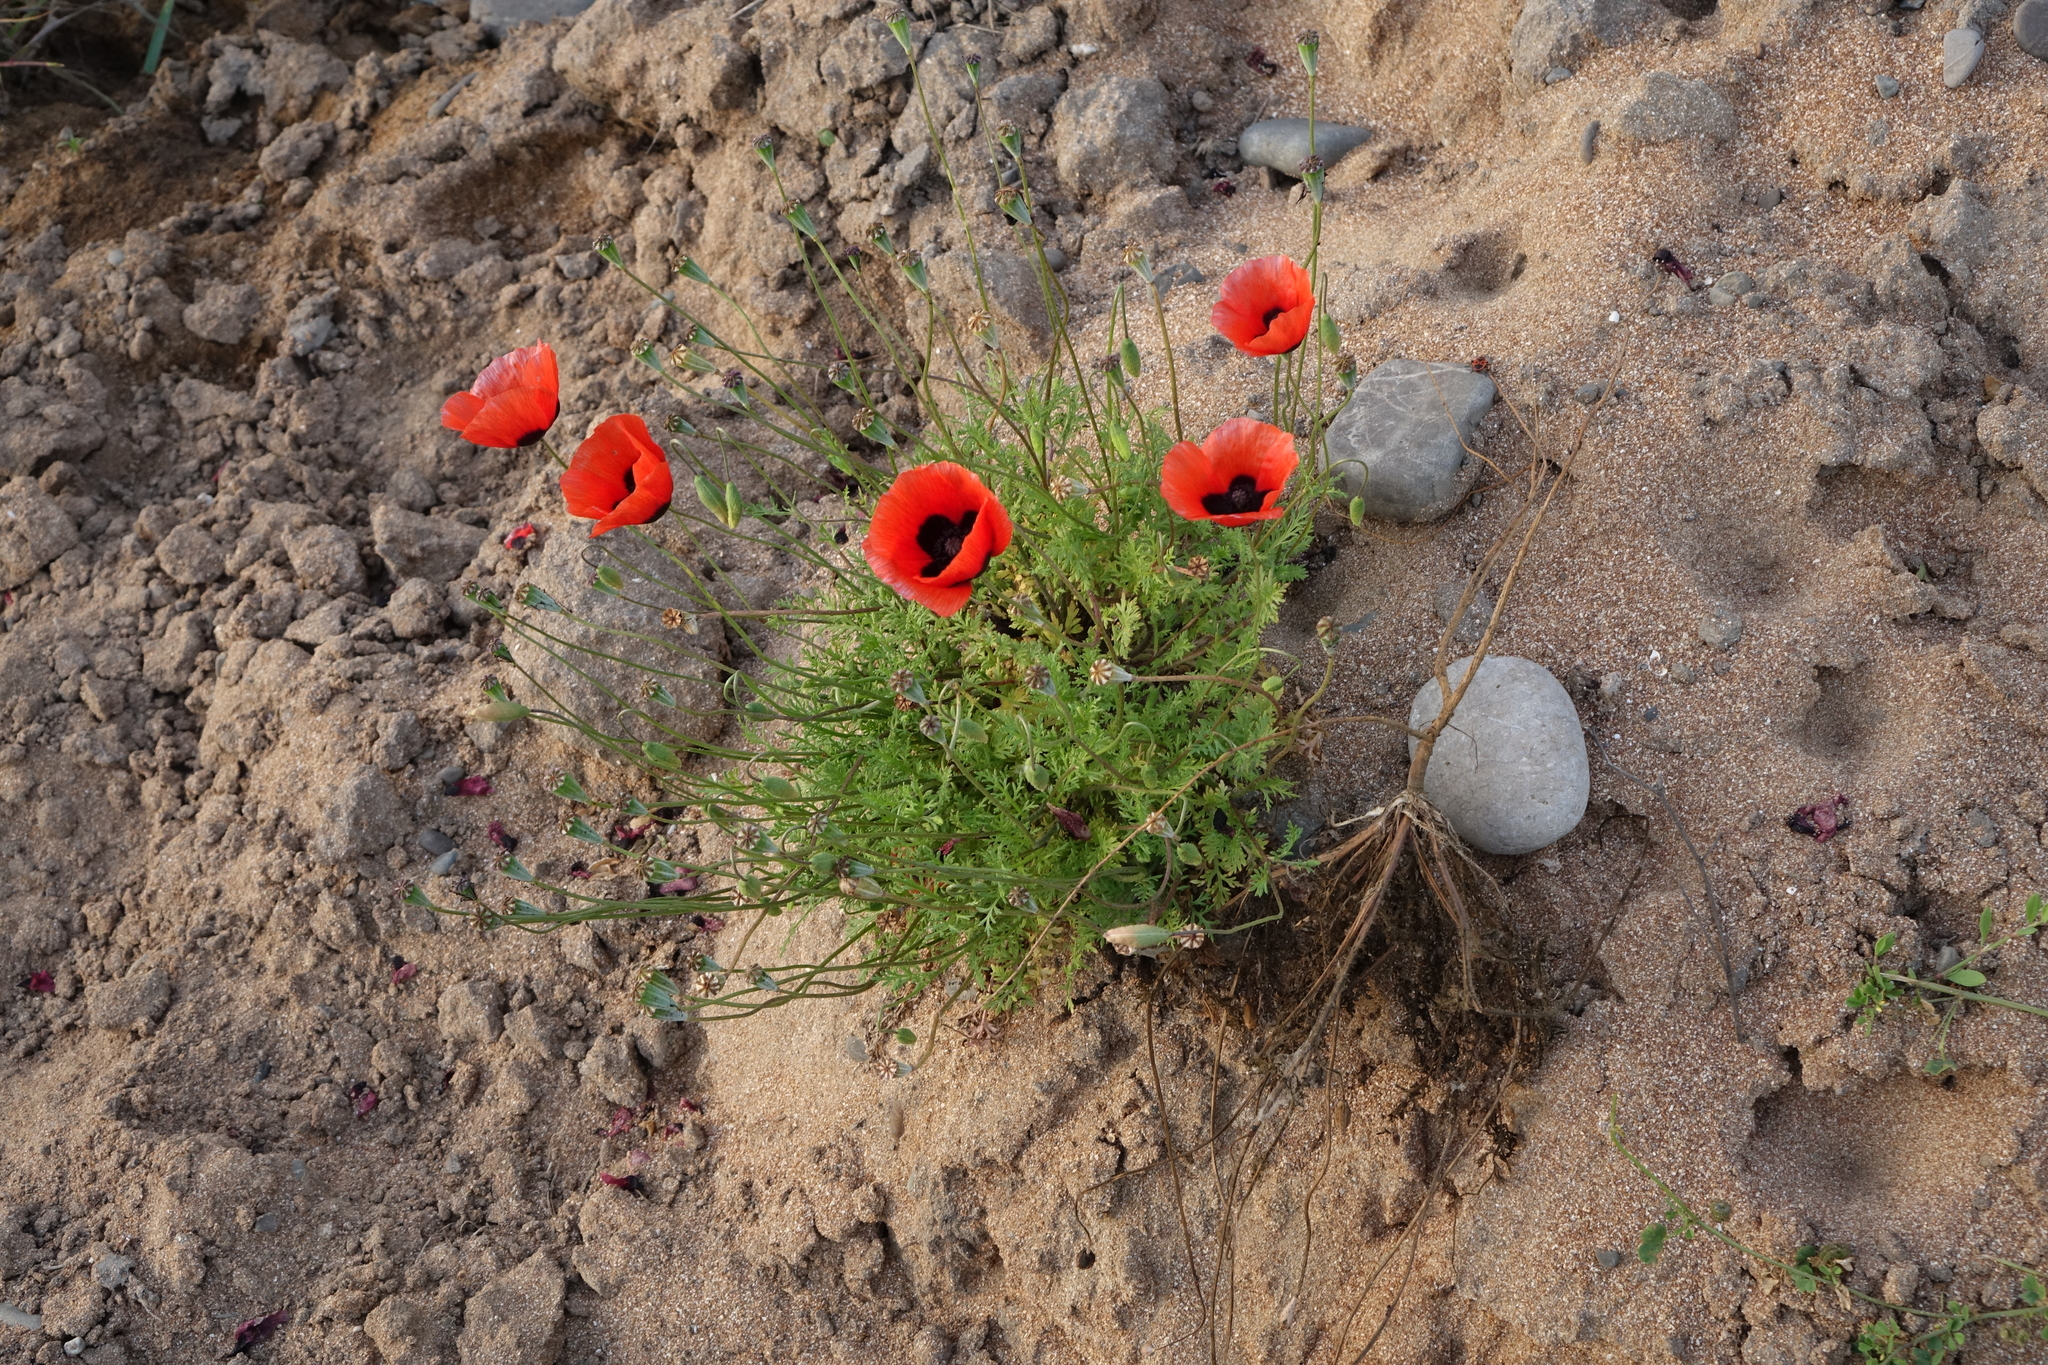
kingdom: Plantae
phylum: Tracheophyta
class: Magnoliopsida
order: Ranunculales
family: Papaveraceae
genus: Papaver
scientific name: Papaver arenarium
